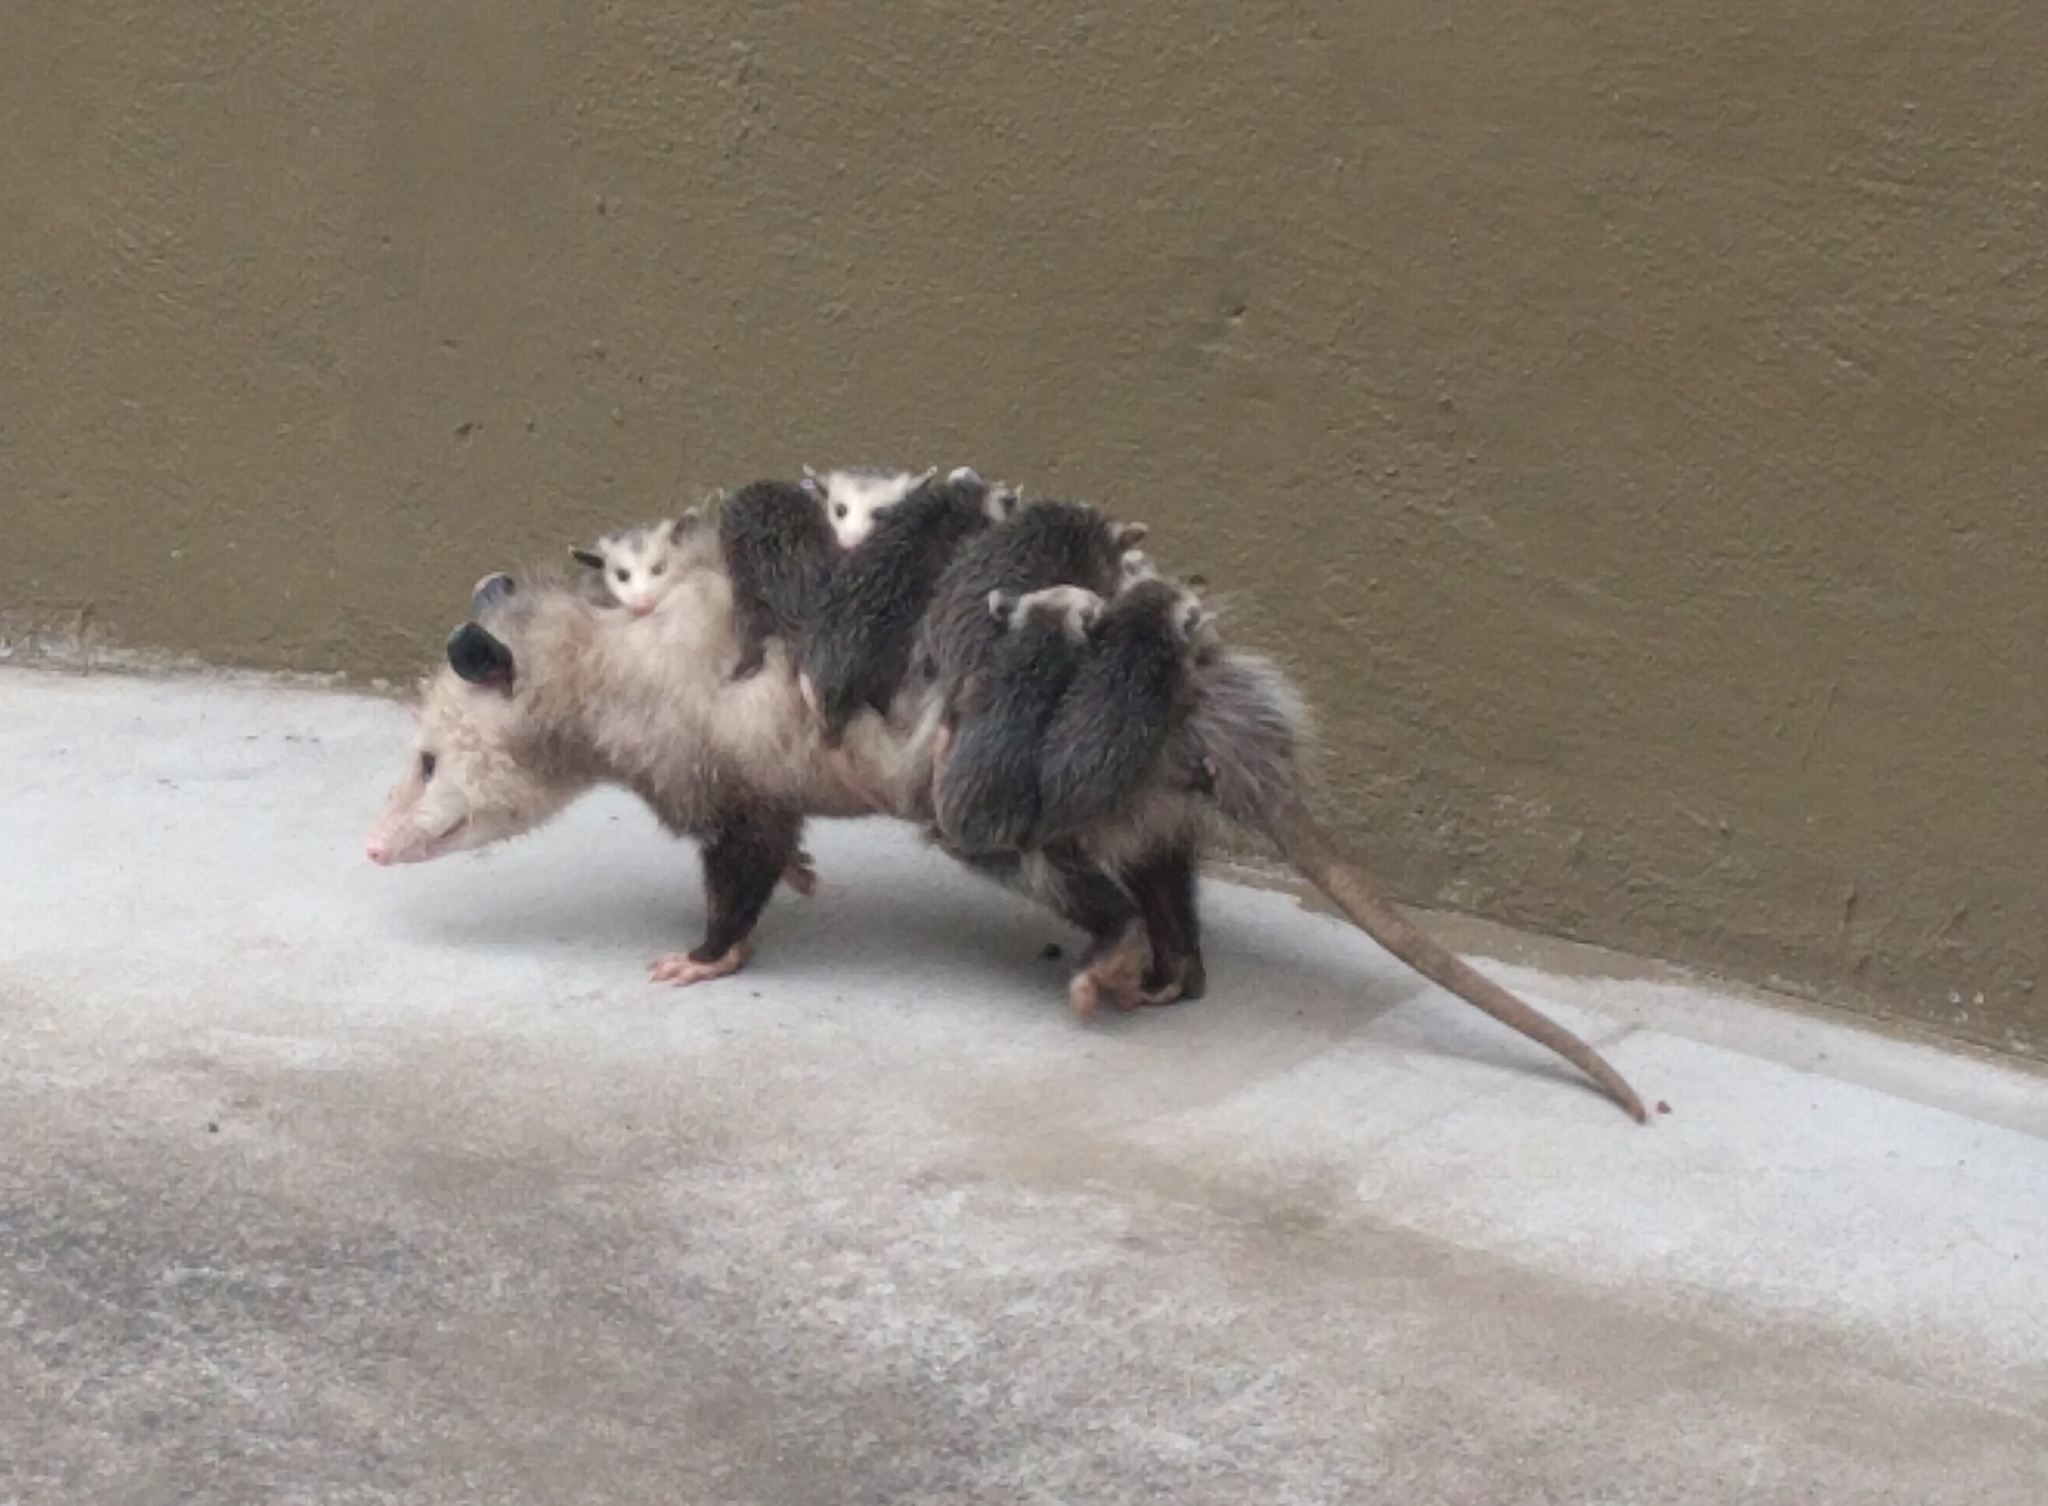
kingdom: Animalia
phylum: Chordata
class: Mammalia
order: Didelphimorphia
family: Didelphidae
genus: Didelphis
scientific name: Didelphis virginiana
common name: Virginia opossum
